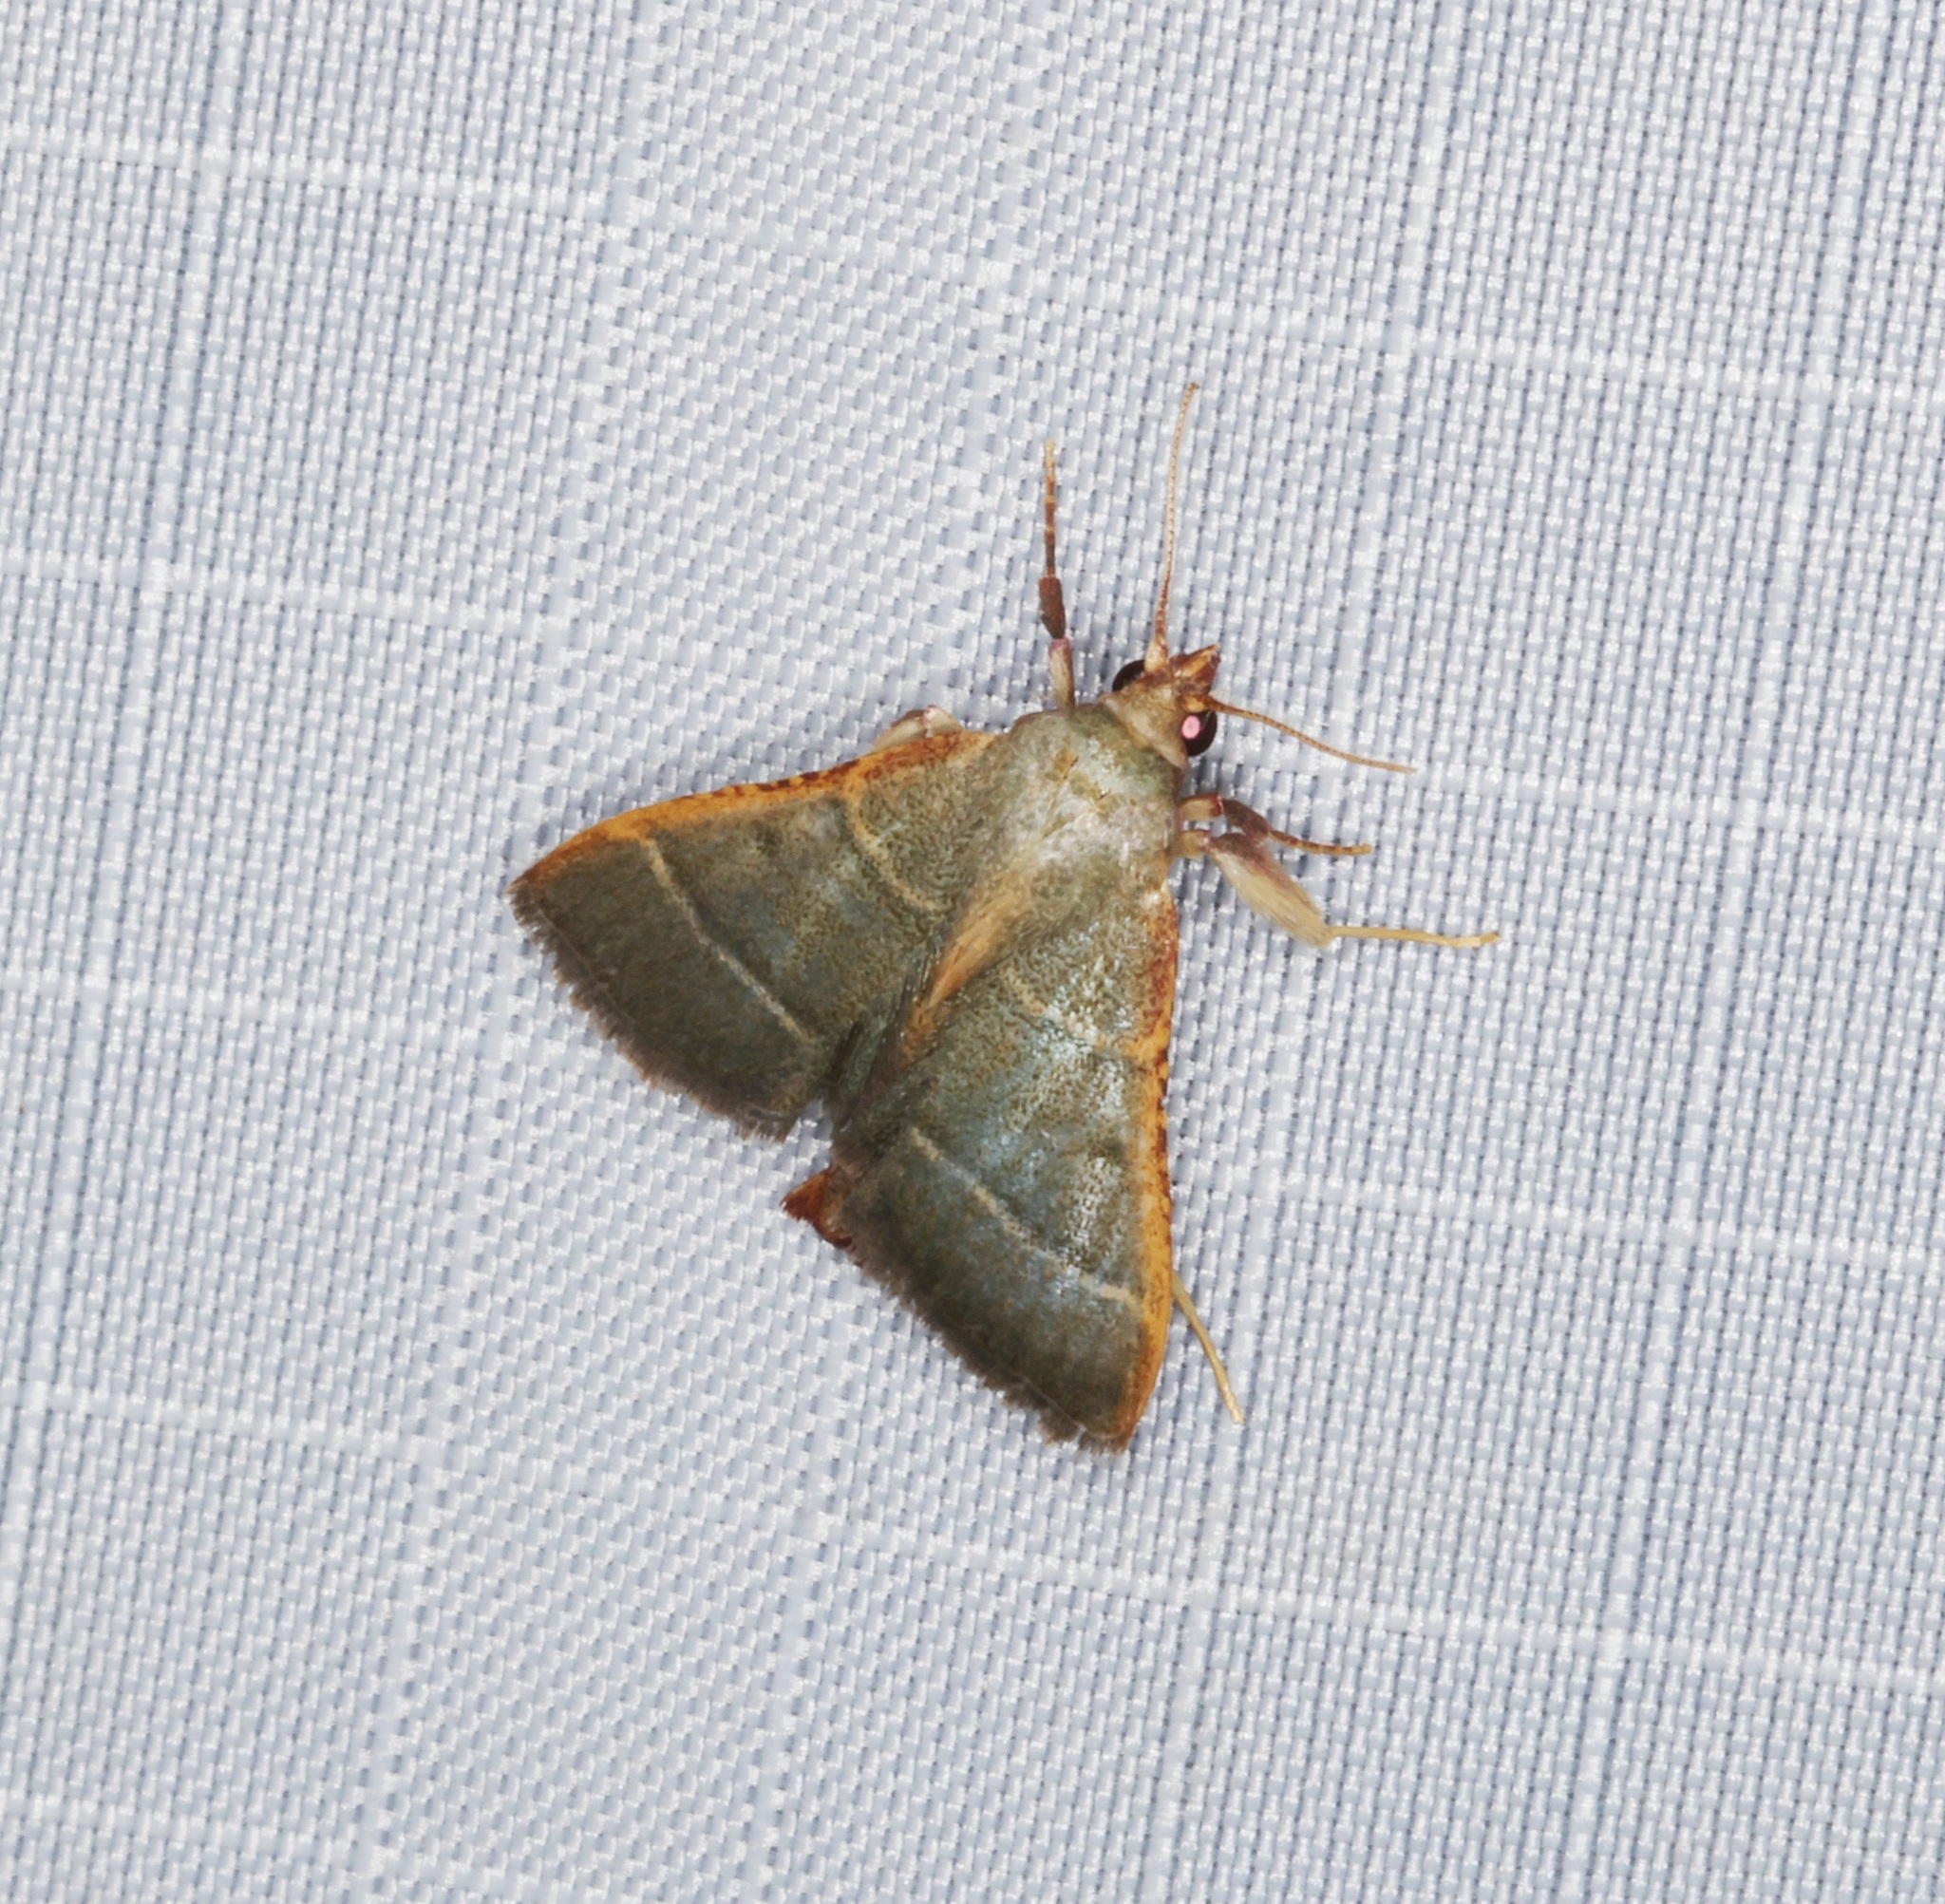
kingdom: Animalia
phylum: Arthropoda
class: Insecta
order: Lepidoptera
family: Pyralidae
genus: Hypsopygia
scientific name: Hypsopygia
